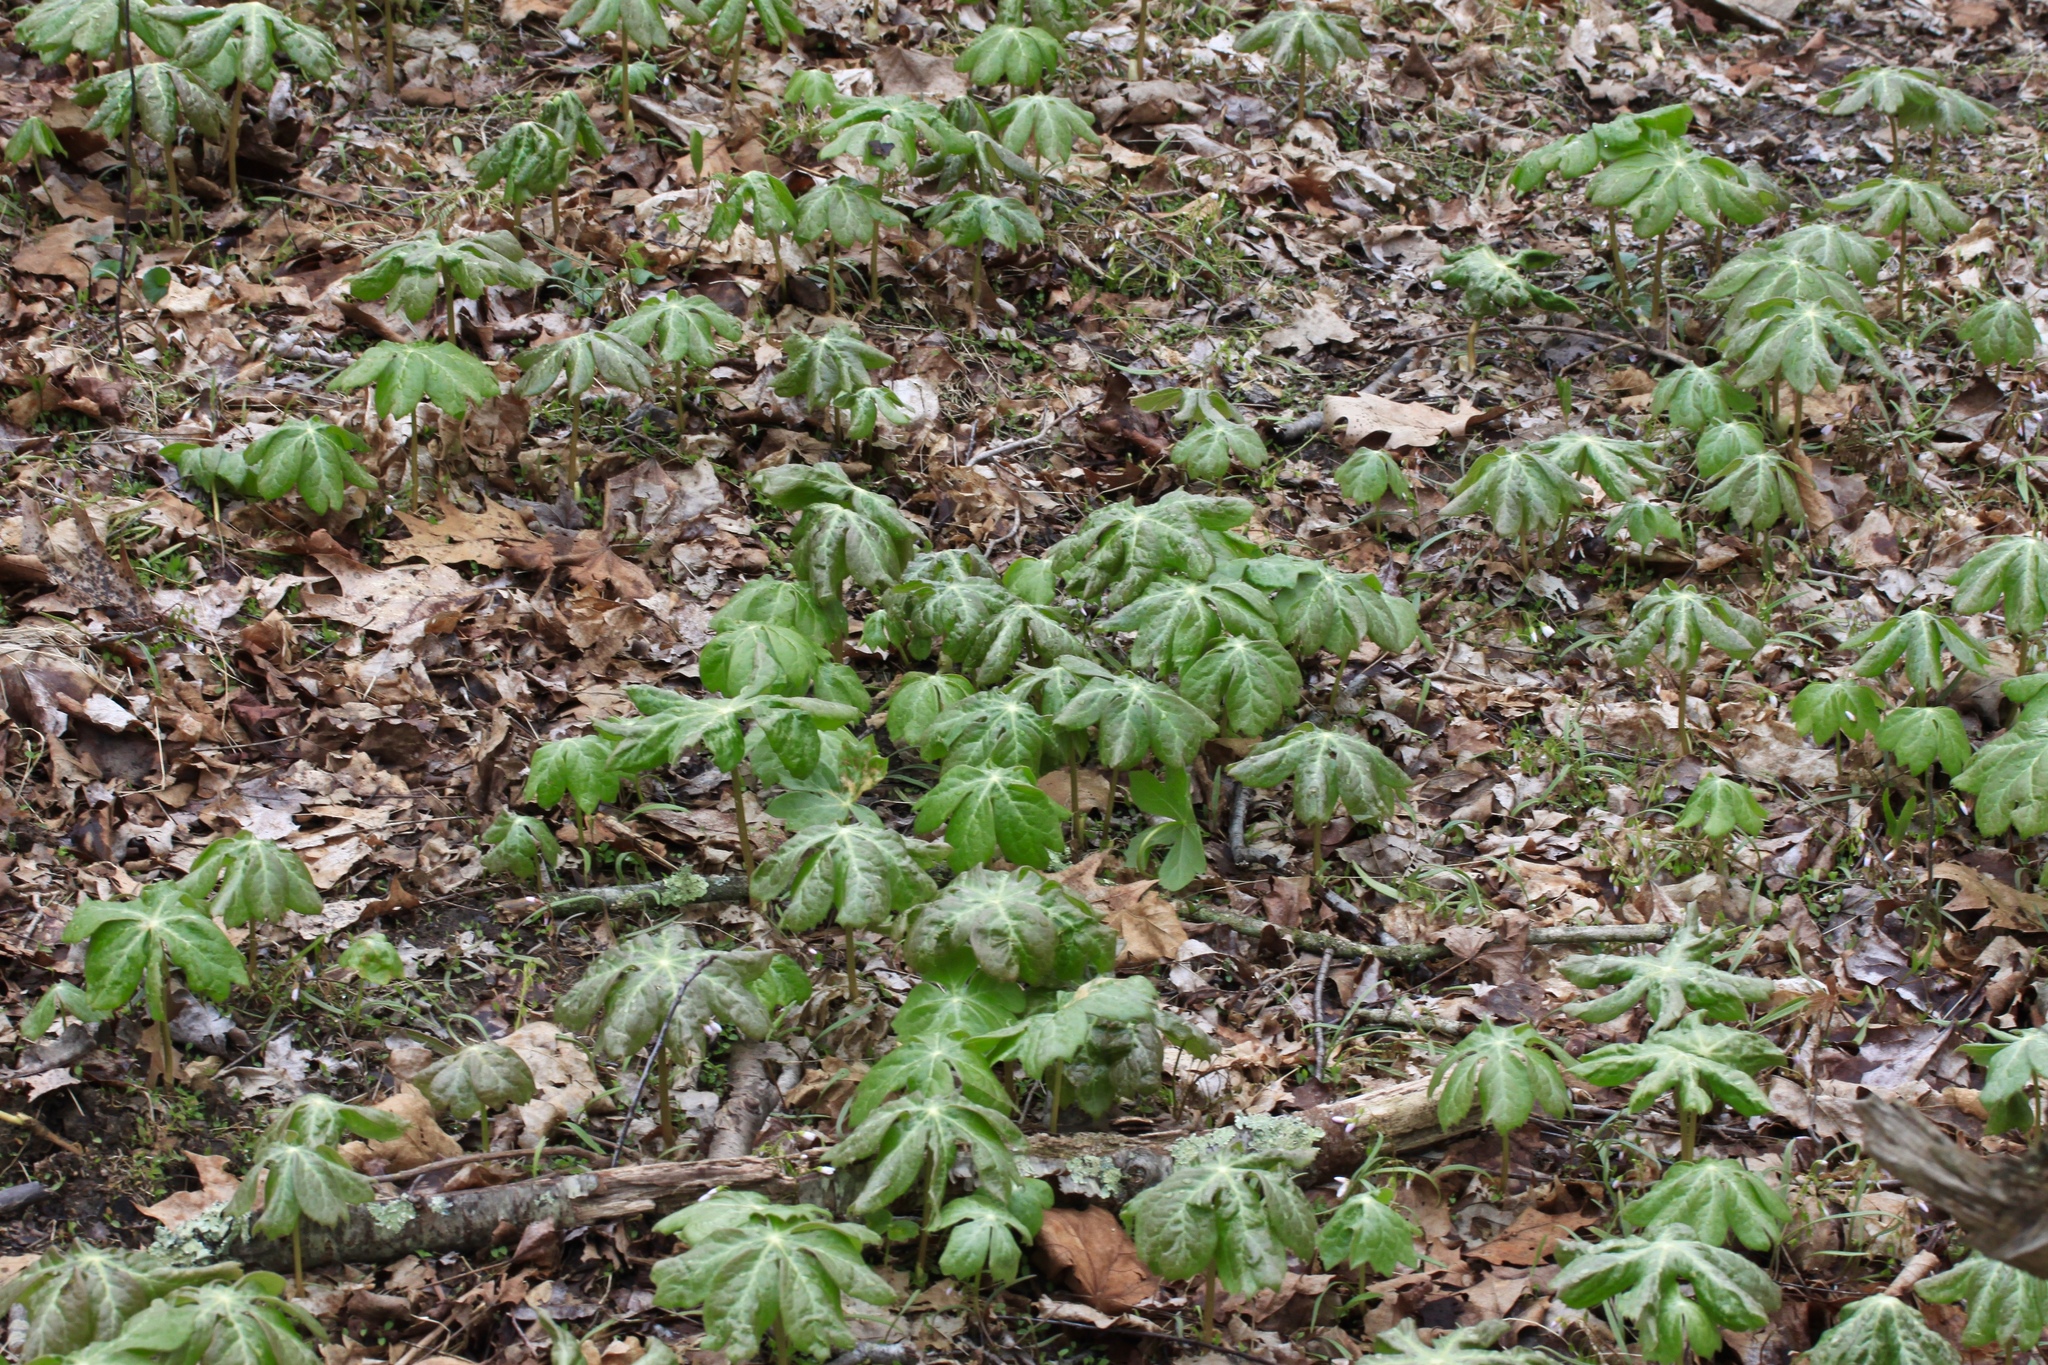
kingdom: Plantae
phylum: Tracheophyta
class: Magnoliopsida
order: Ranunculales
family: Berberidaceae
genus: Podophyllum
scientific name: Podophyllum peltatum
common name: Wild mandrake
